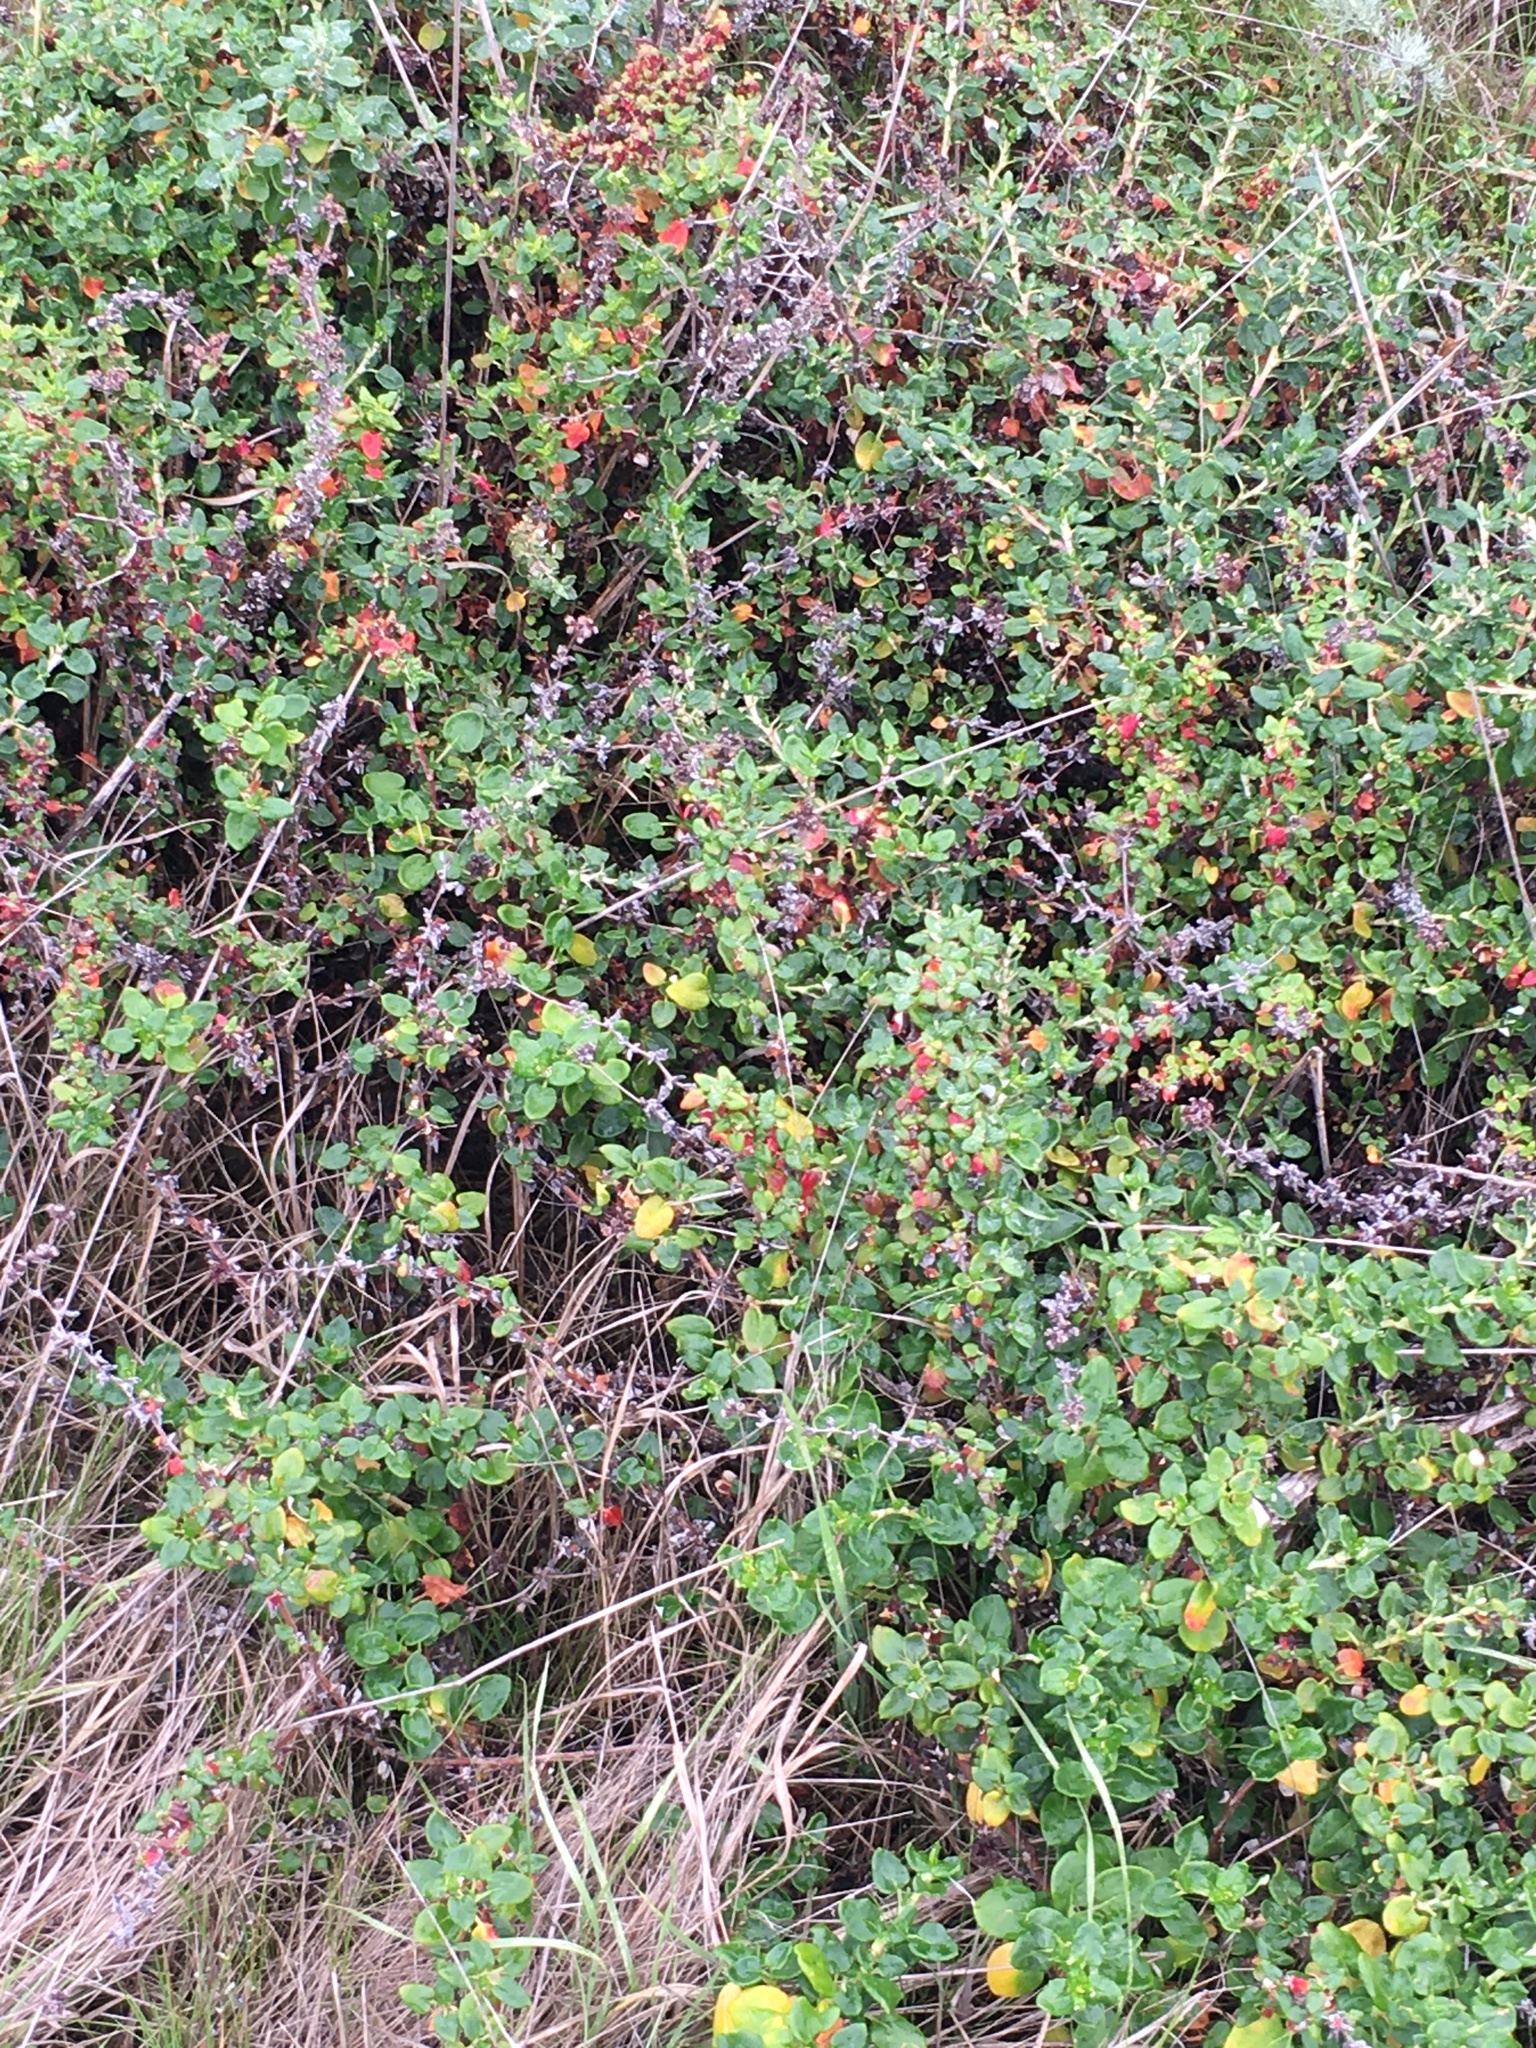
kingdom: Plantae
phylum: Tracheophyta
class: Magnoliopsida
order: Caryophyllales
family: Polygonaceae
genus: Eriogonum
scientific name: Eriogonum parvifolium
